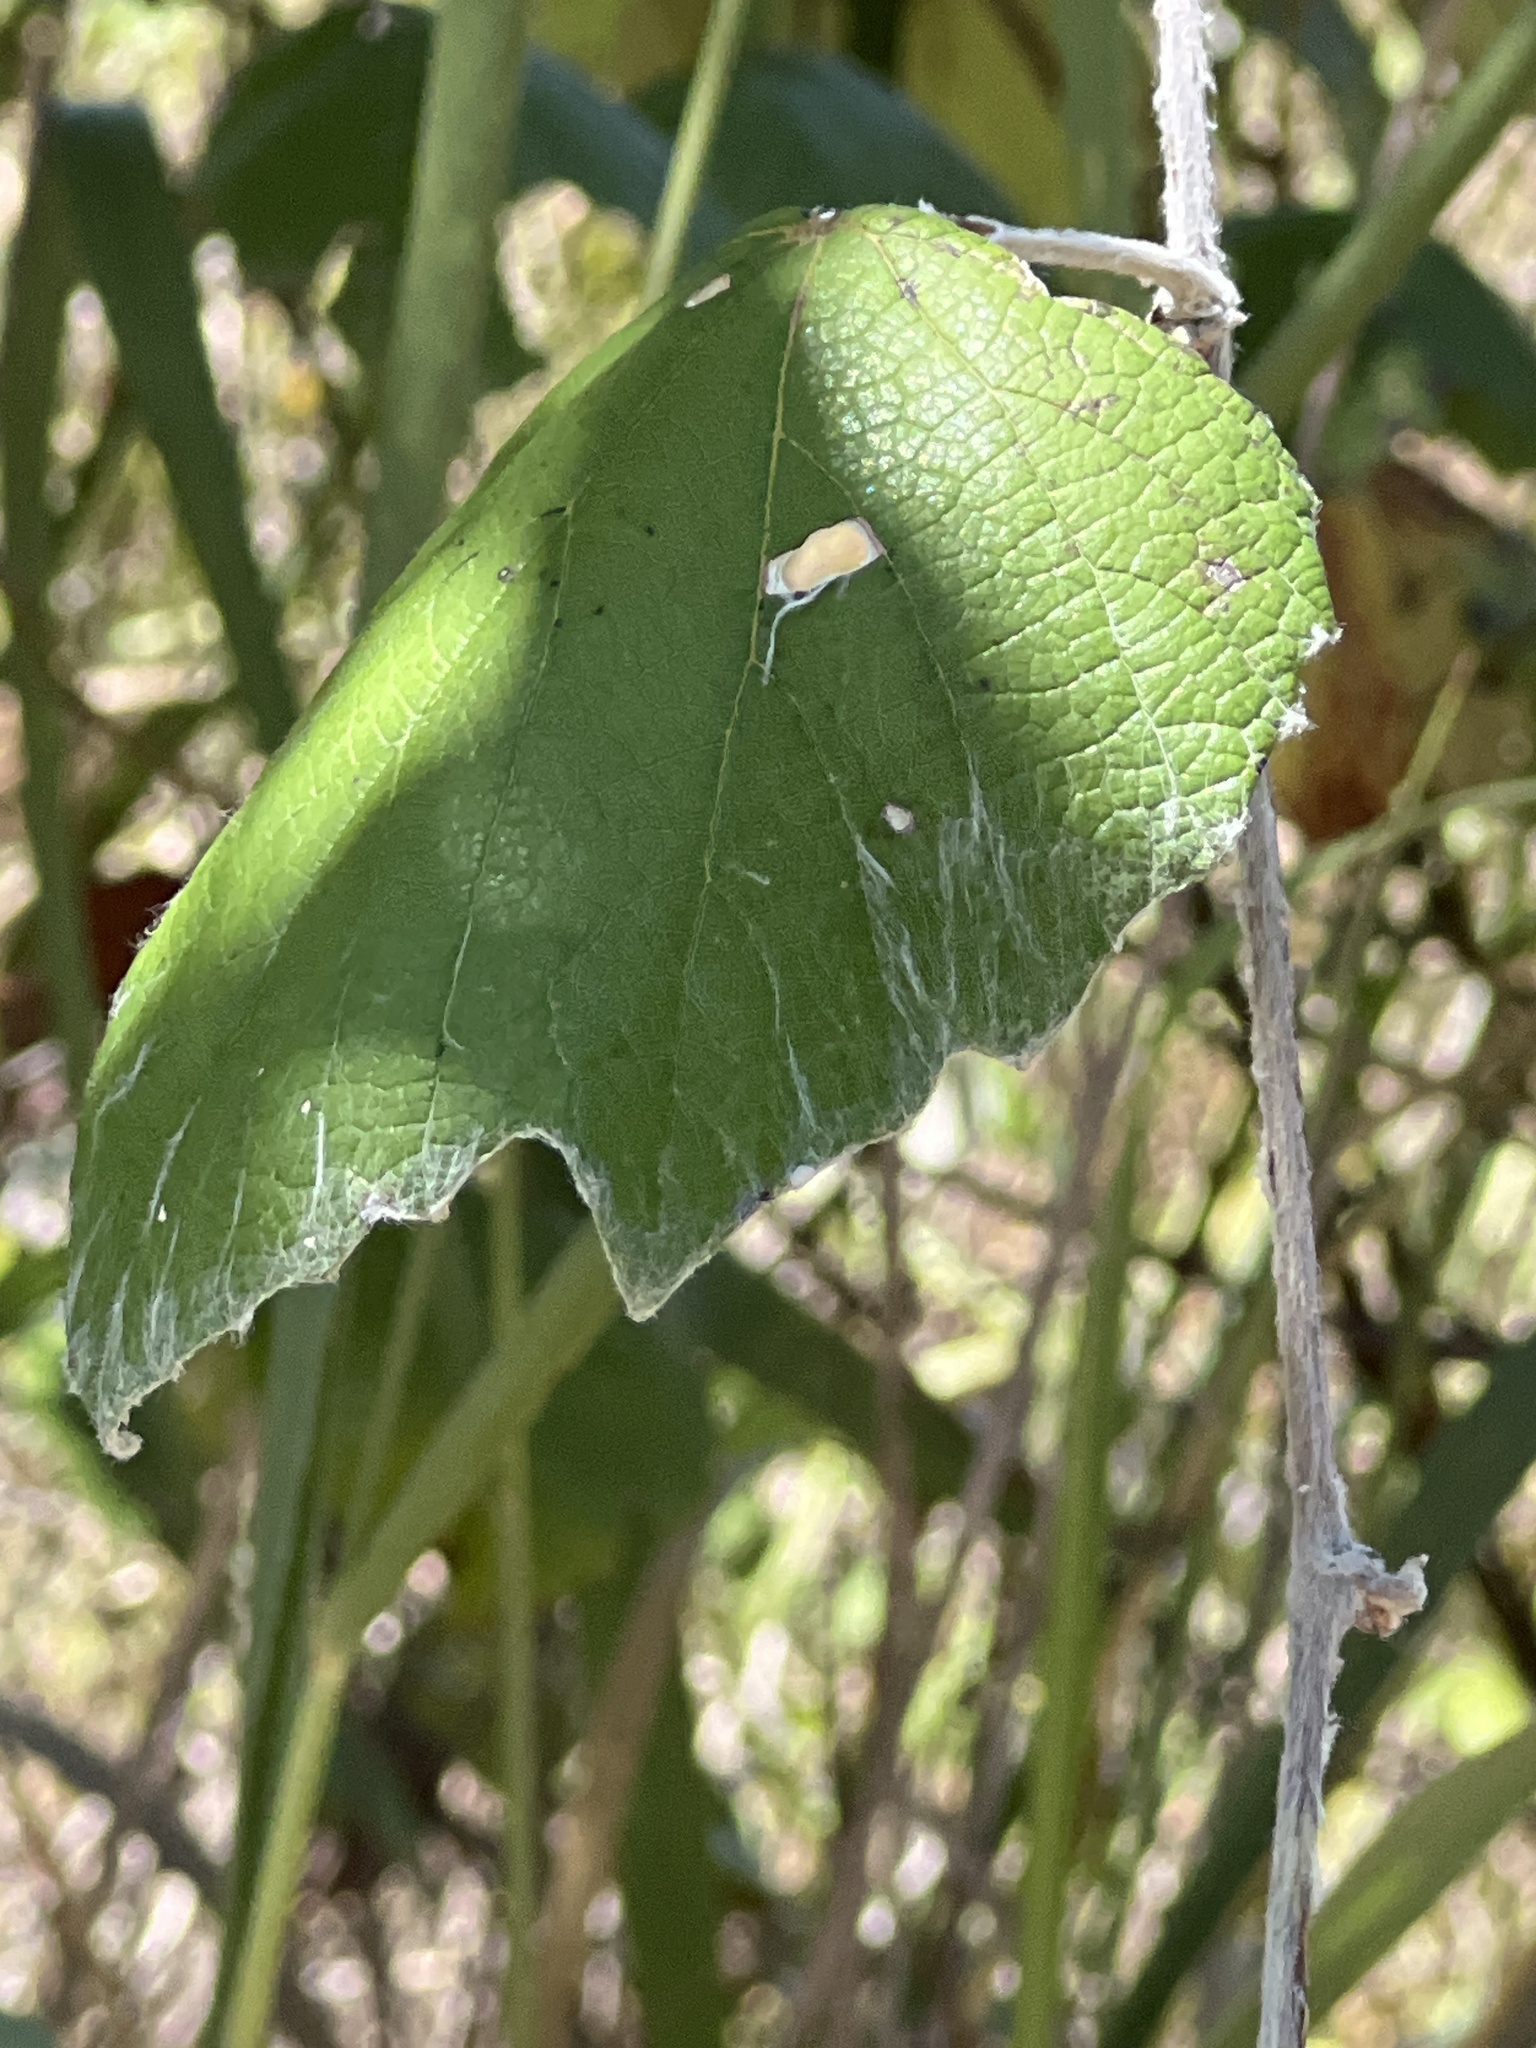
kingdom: Plantae
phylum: Tracheophyta
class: Magnoliopsida
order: Vitales
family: Vitaceae
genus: Vitis
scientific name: Vitis mustangensis
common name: Mustang grape
